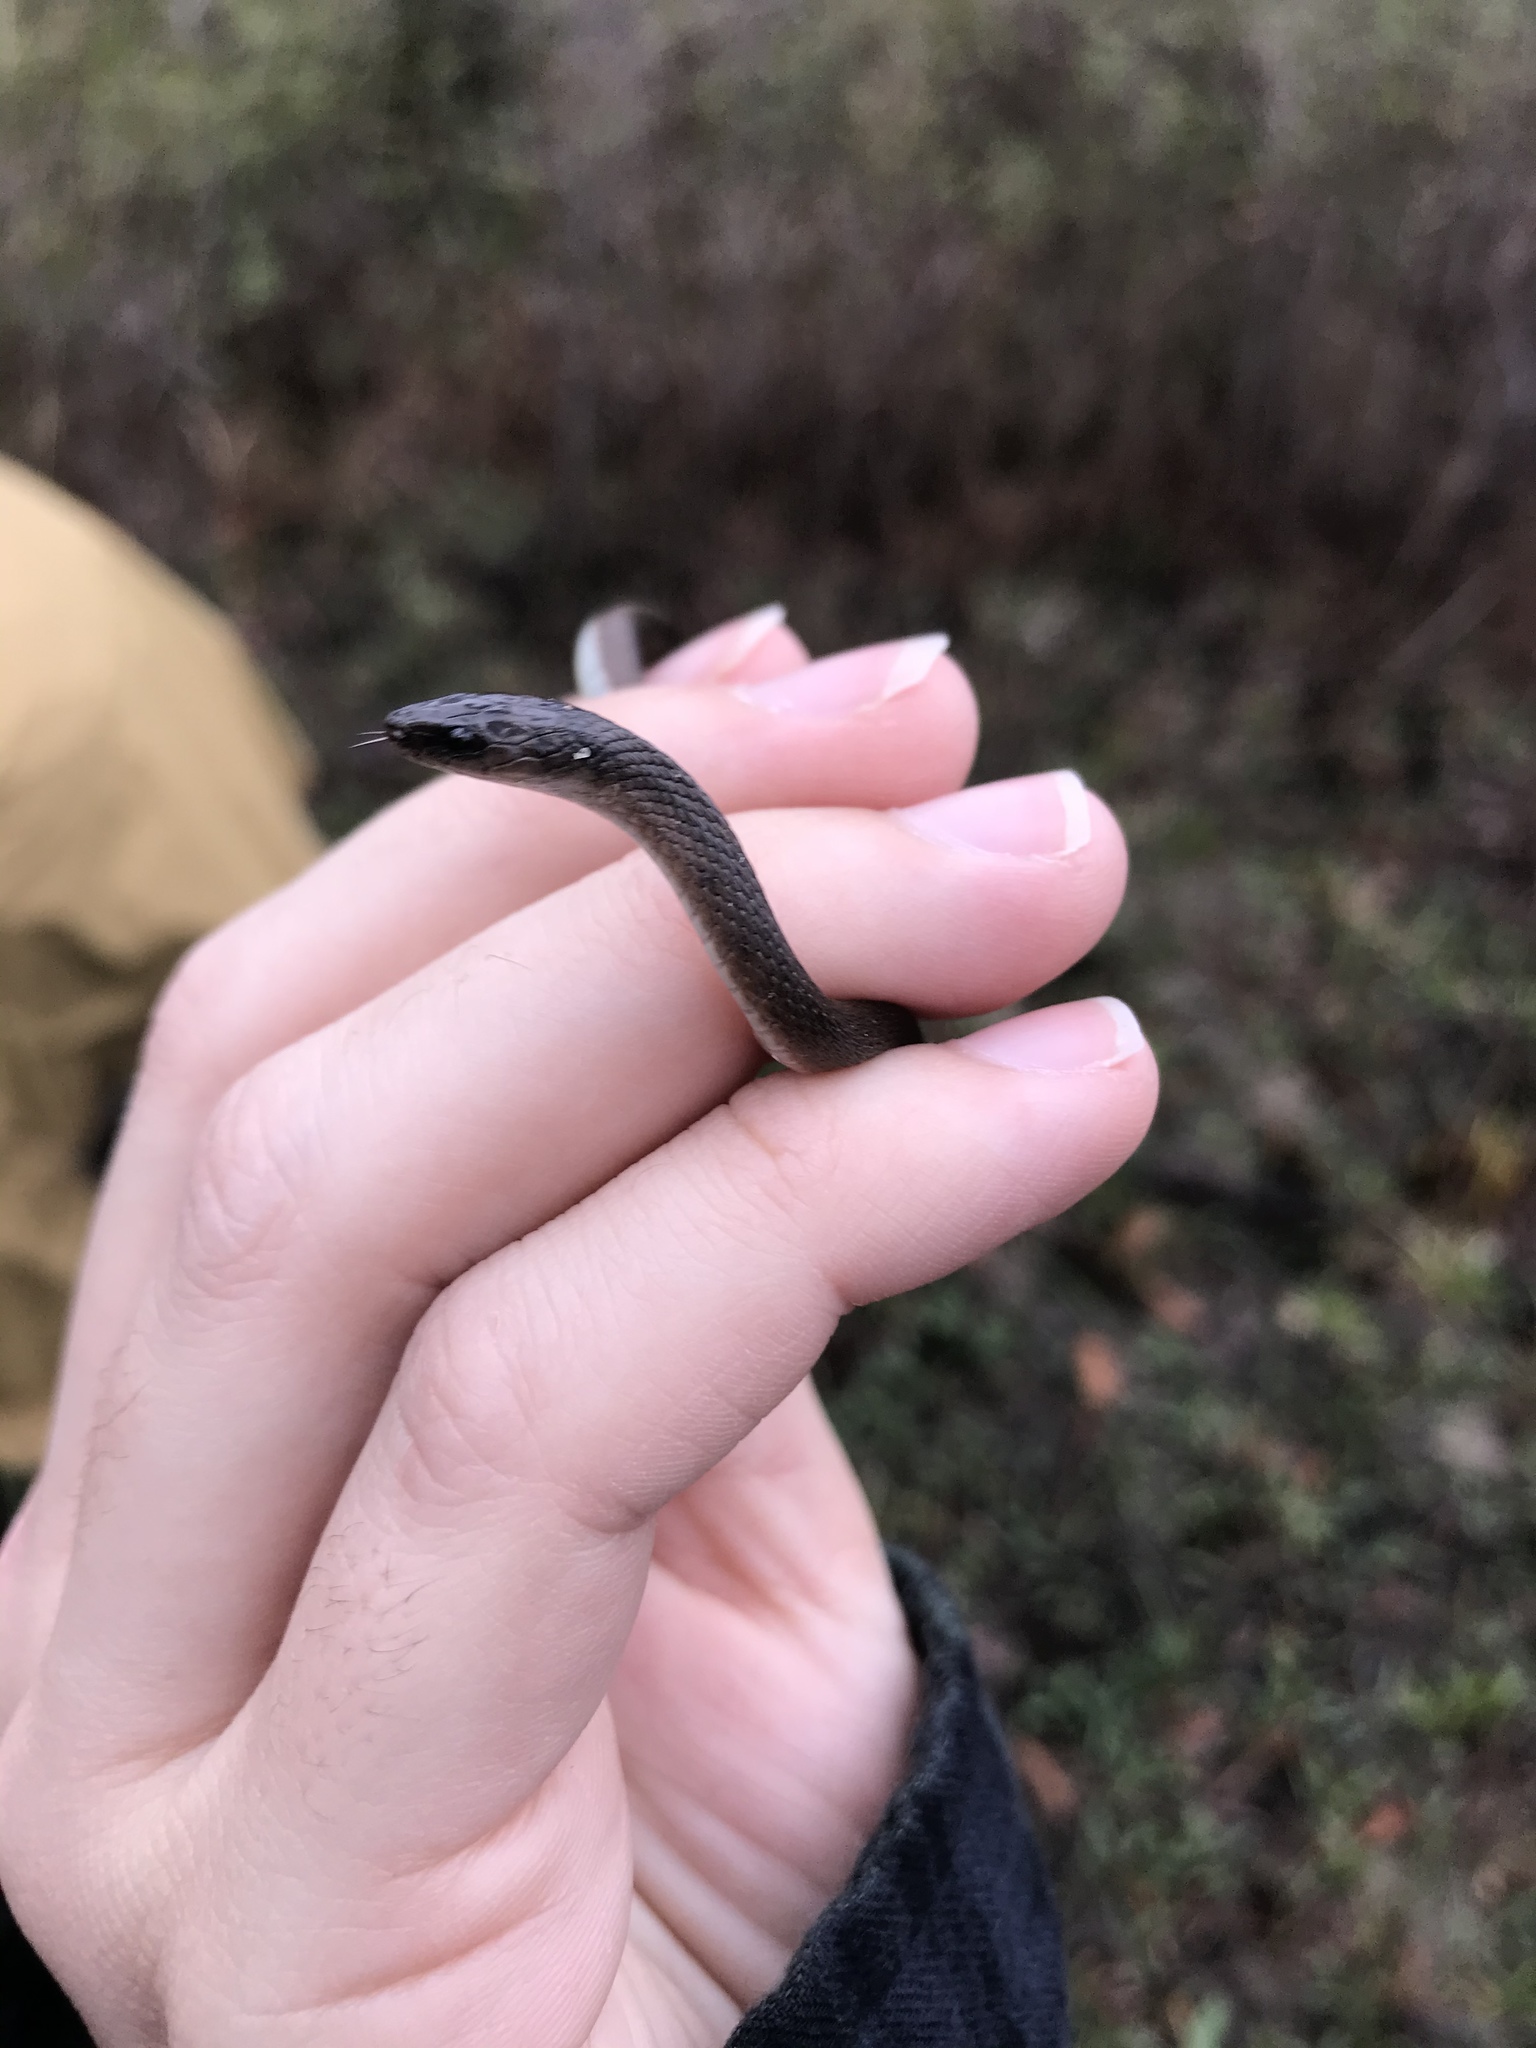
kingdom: Animalia
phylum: Chordata
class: Squamata
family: Colubridae
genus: Haldea
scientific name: Haldea striatula
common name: Rough earth snake
